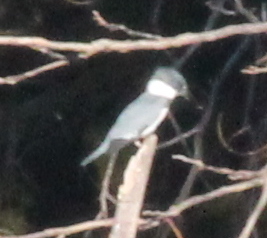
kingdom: Animalia
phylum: Chordata
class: Aves
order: Coraciiformes
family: Alcedinidae
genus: Megaceryle
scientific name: Megaceryle alcyon
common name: Belted kingfisher
